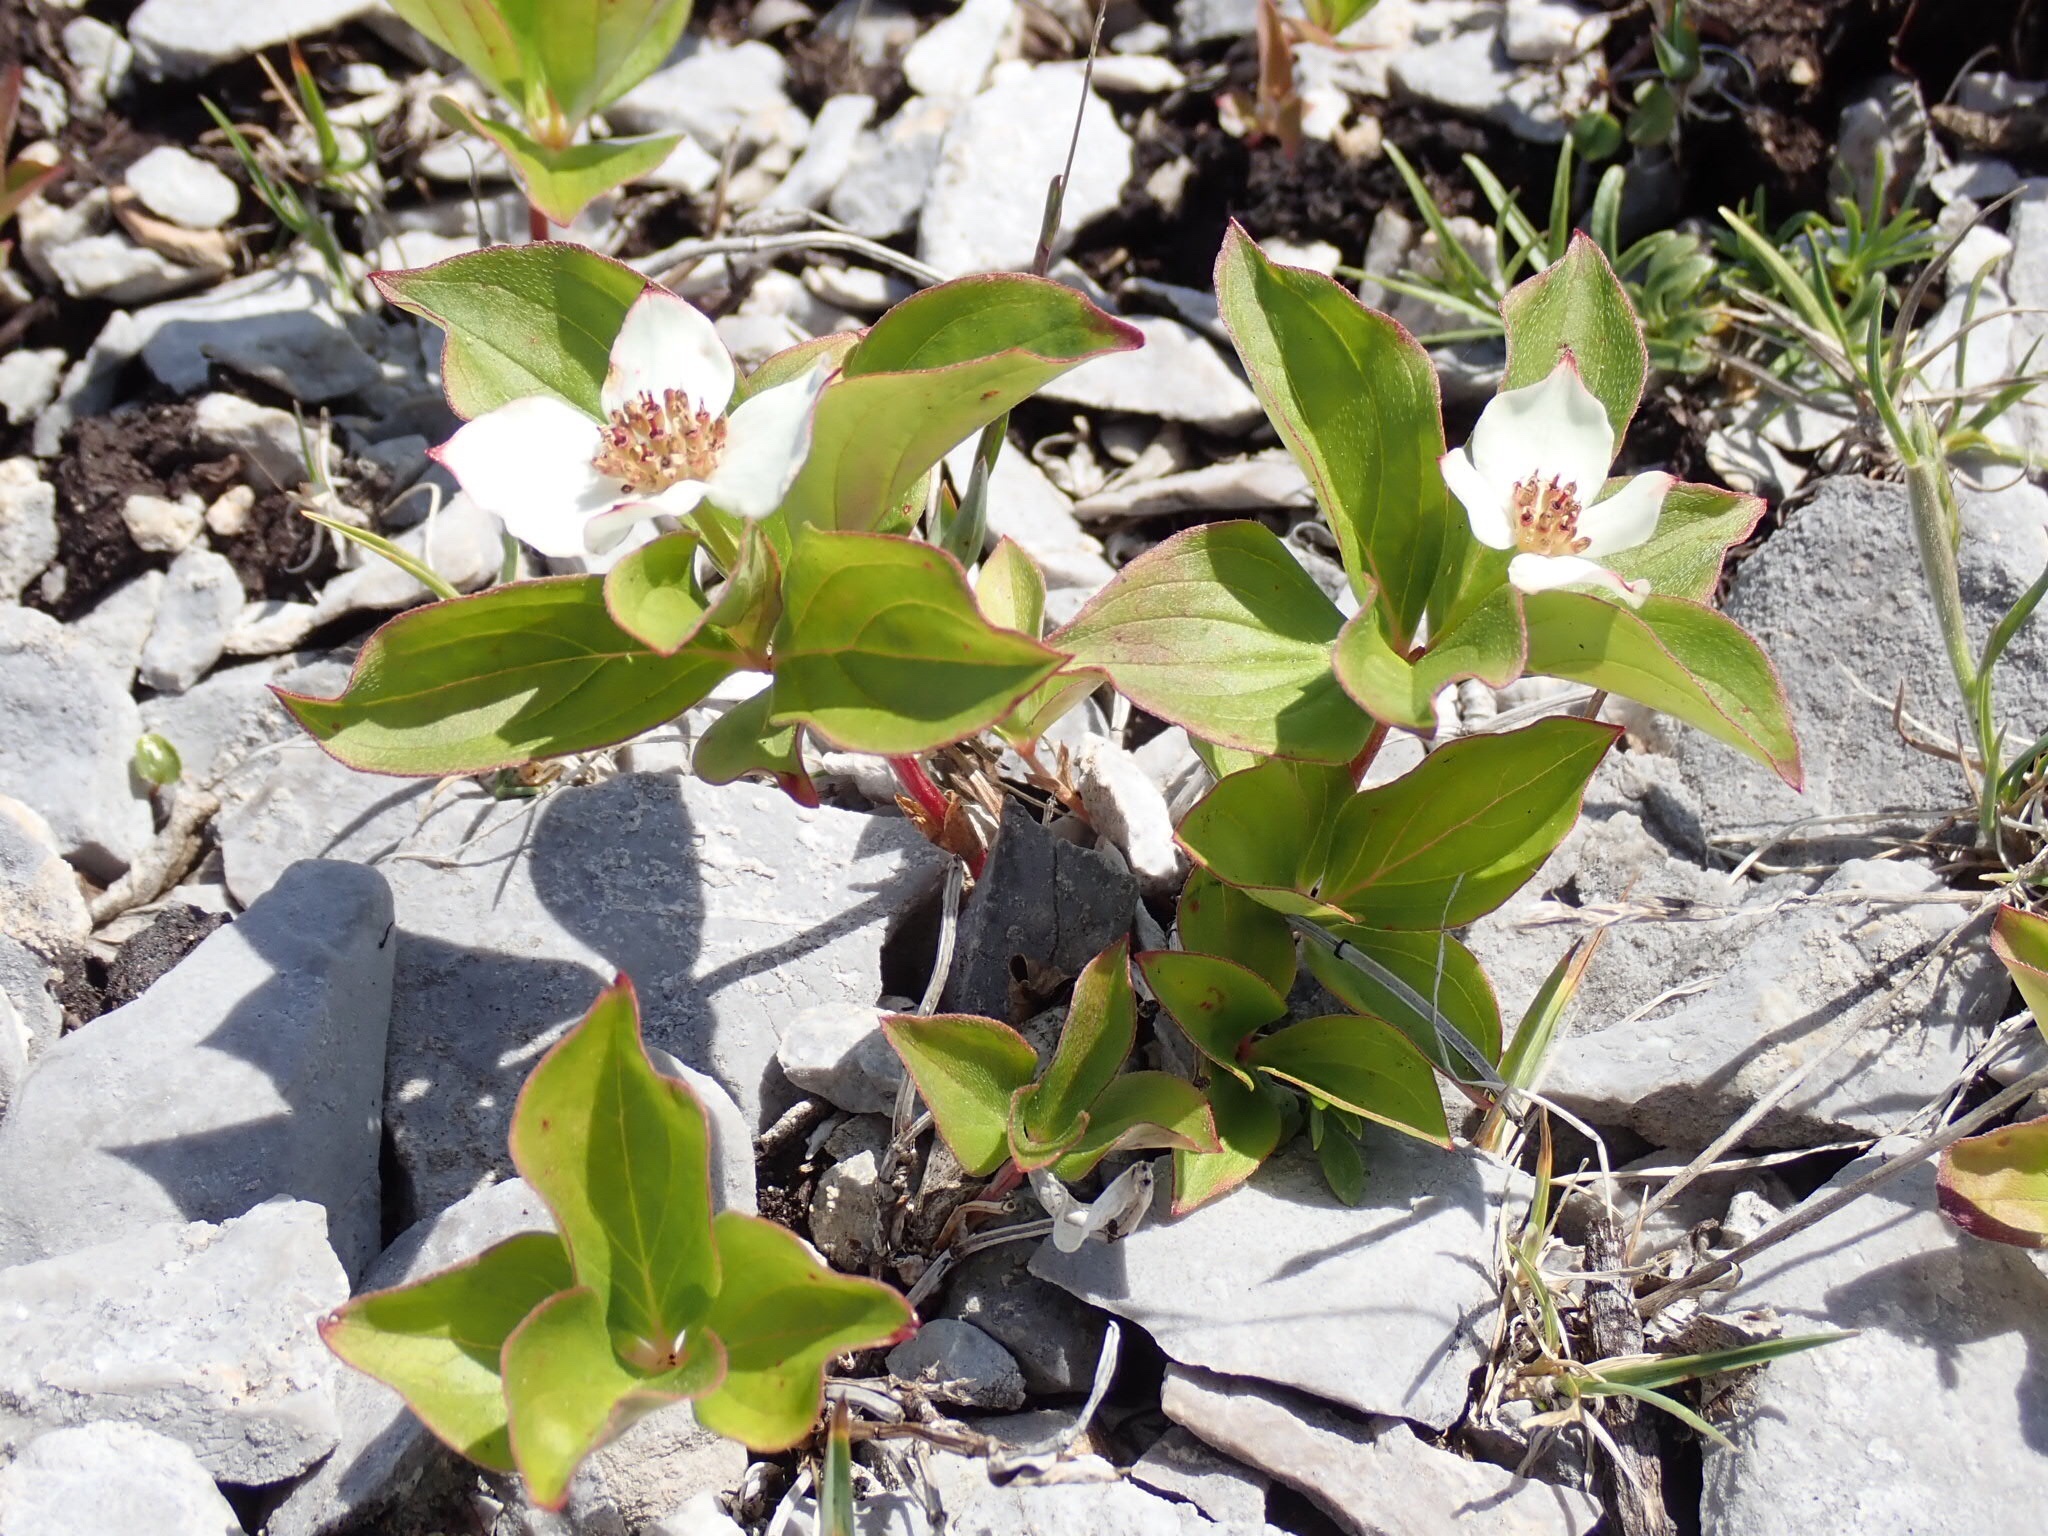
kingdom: Plantae
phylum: Tracheophyta
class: Magnoliopsida
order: Cornales
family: Cornaceae
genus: Cornus
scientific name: Cornus canadensis
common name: Creeping dogwood
